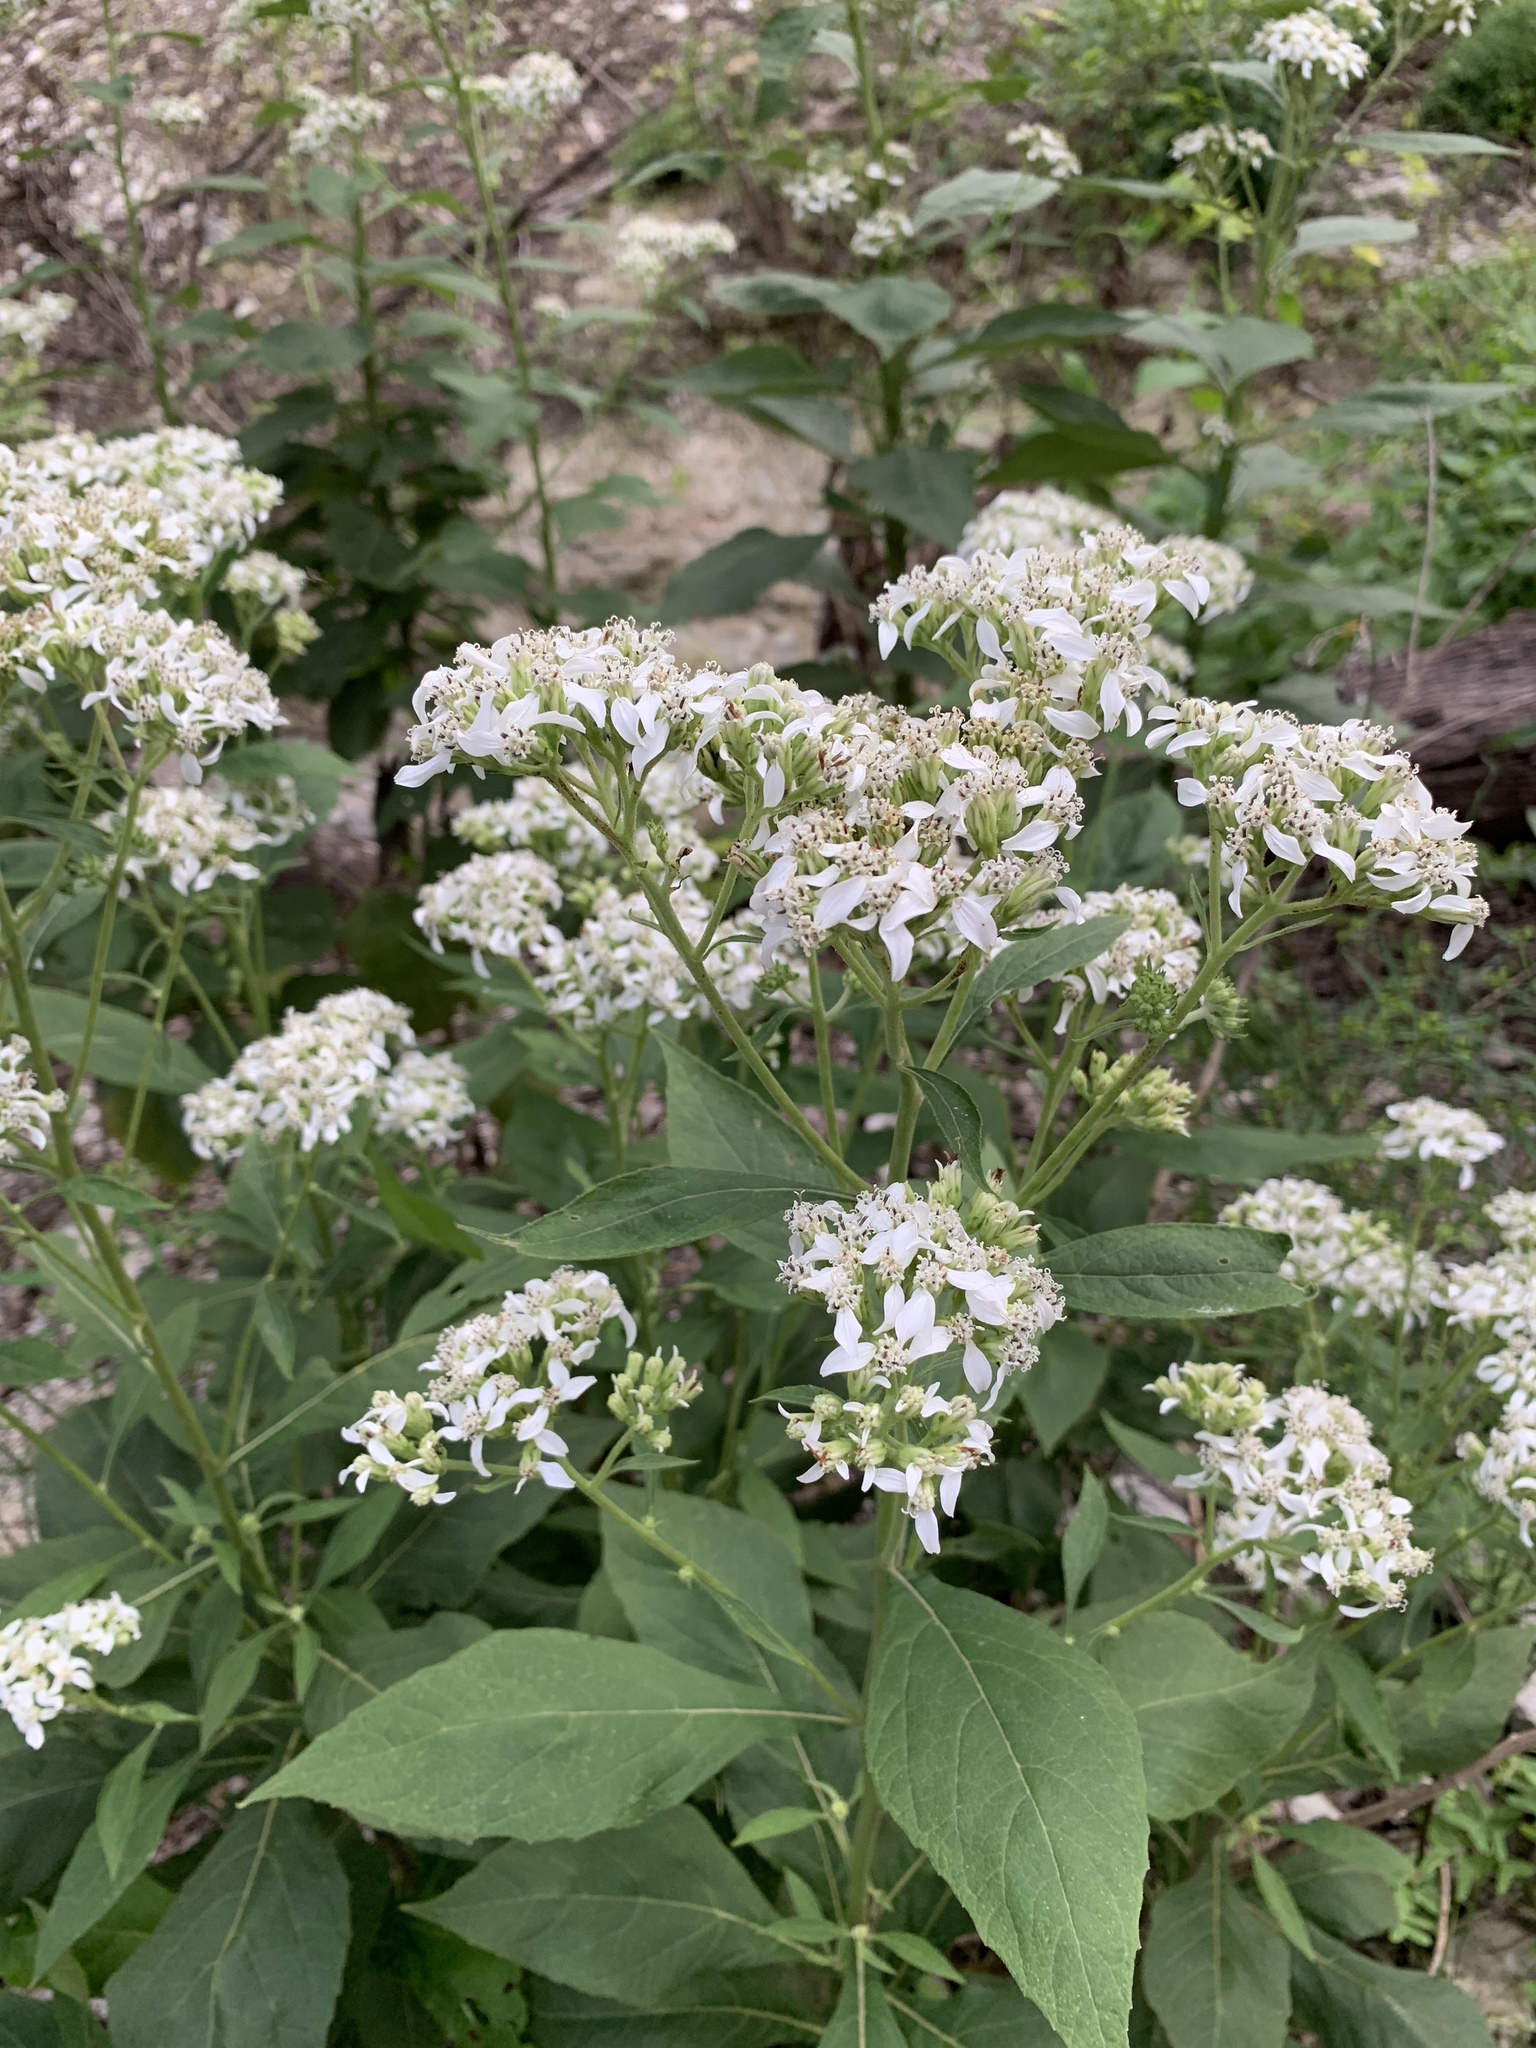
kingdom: Plantae
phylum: Tracheophyta
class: Magnoliopsida
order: Asterales
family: Asteraceae
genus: Verbesina
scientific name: Verbesina virginica
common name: Frostweed
